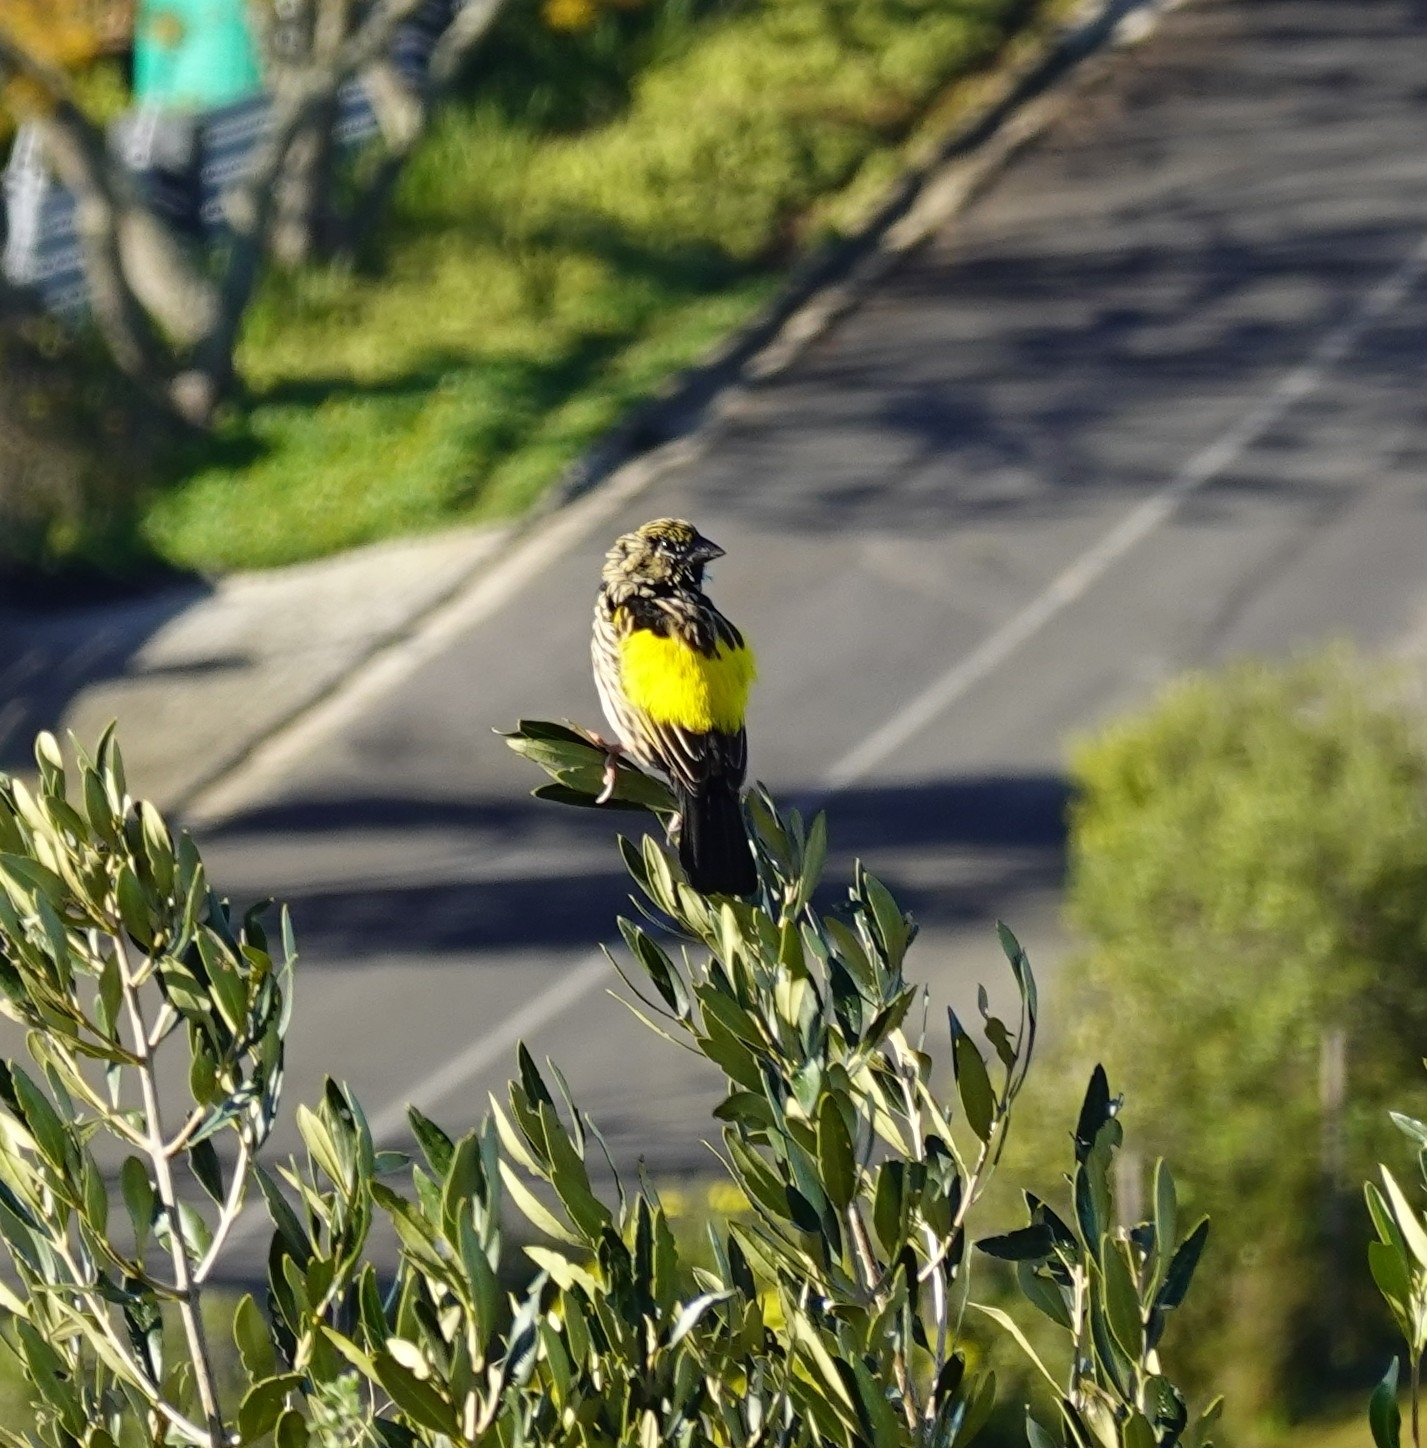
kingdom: Animalia
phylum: Chordata
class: Aves
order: Passeriformes
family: Ploceidae
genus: Euplectes
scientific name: Euplectes capensis
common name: Yellow bishop
